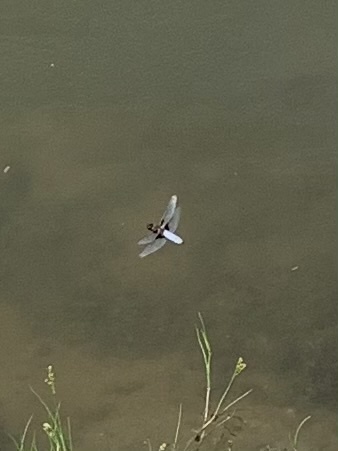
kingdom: Animalia
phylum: Arthropoda
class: Insecta
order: Odonata
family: Libellulidae
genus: Libellula
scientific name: Libellula depressa
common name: Broad-bodied chaser
